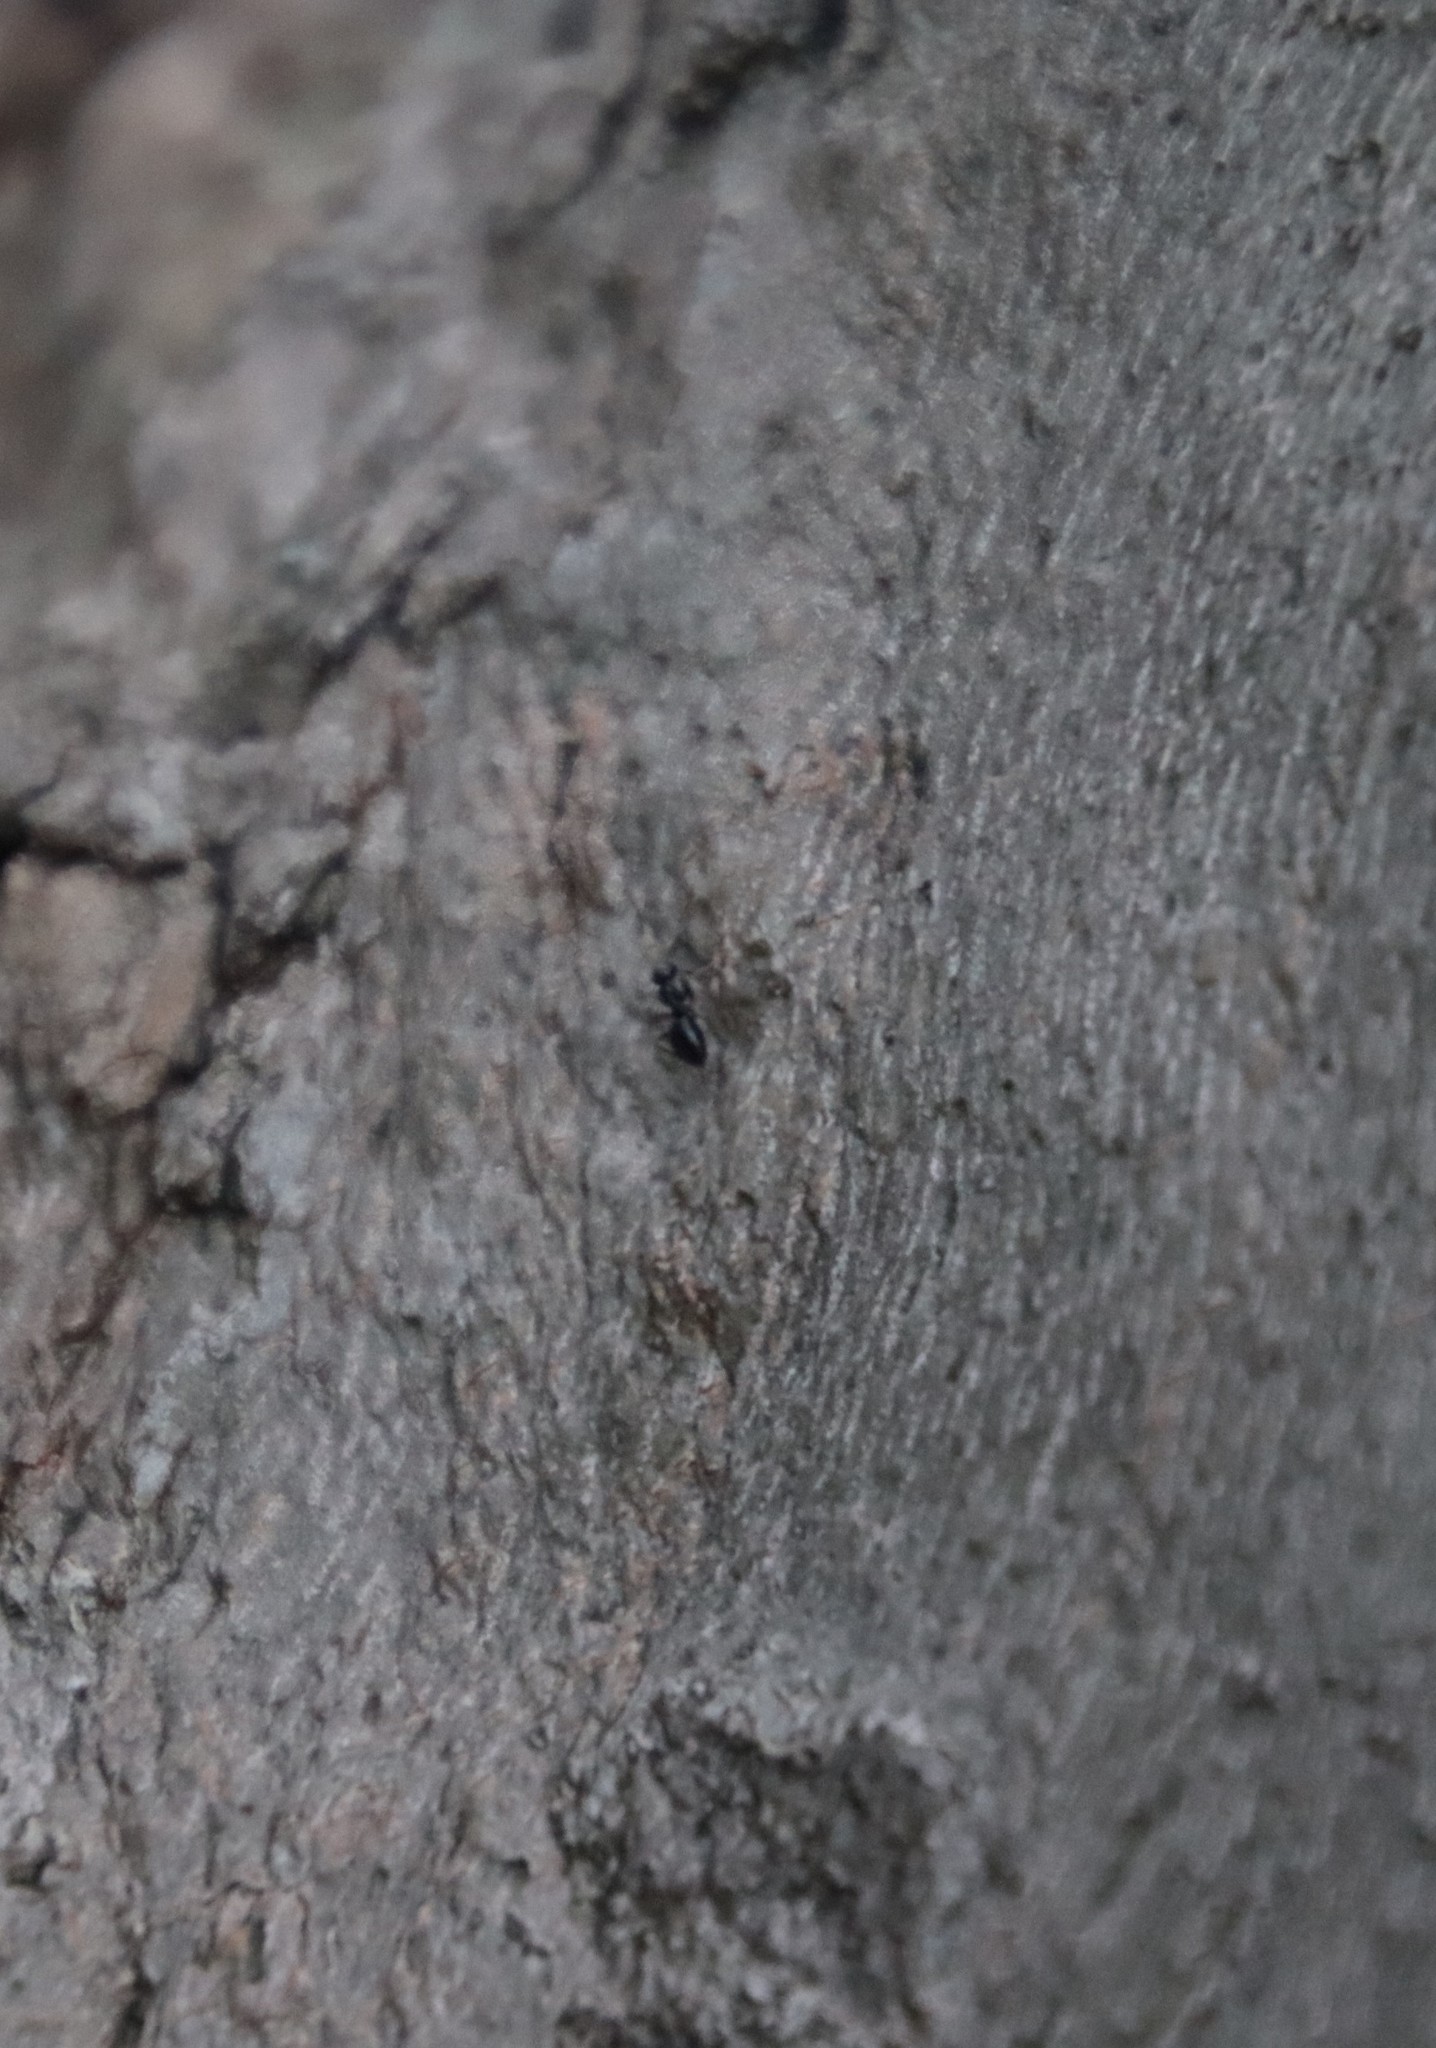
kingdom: Animalia
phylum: Arthropoda
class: Insecta
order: Hymenoptera
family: Formicidae
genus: Lepisiota
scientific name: Lepisiota capensis
